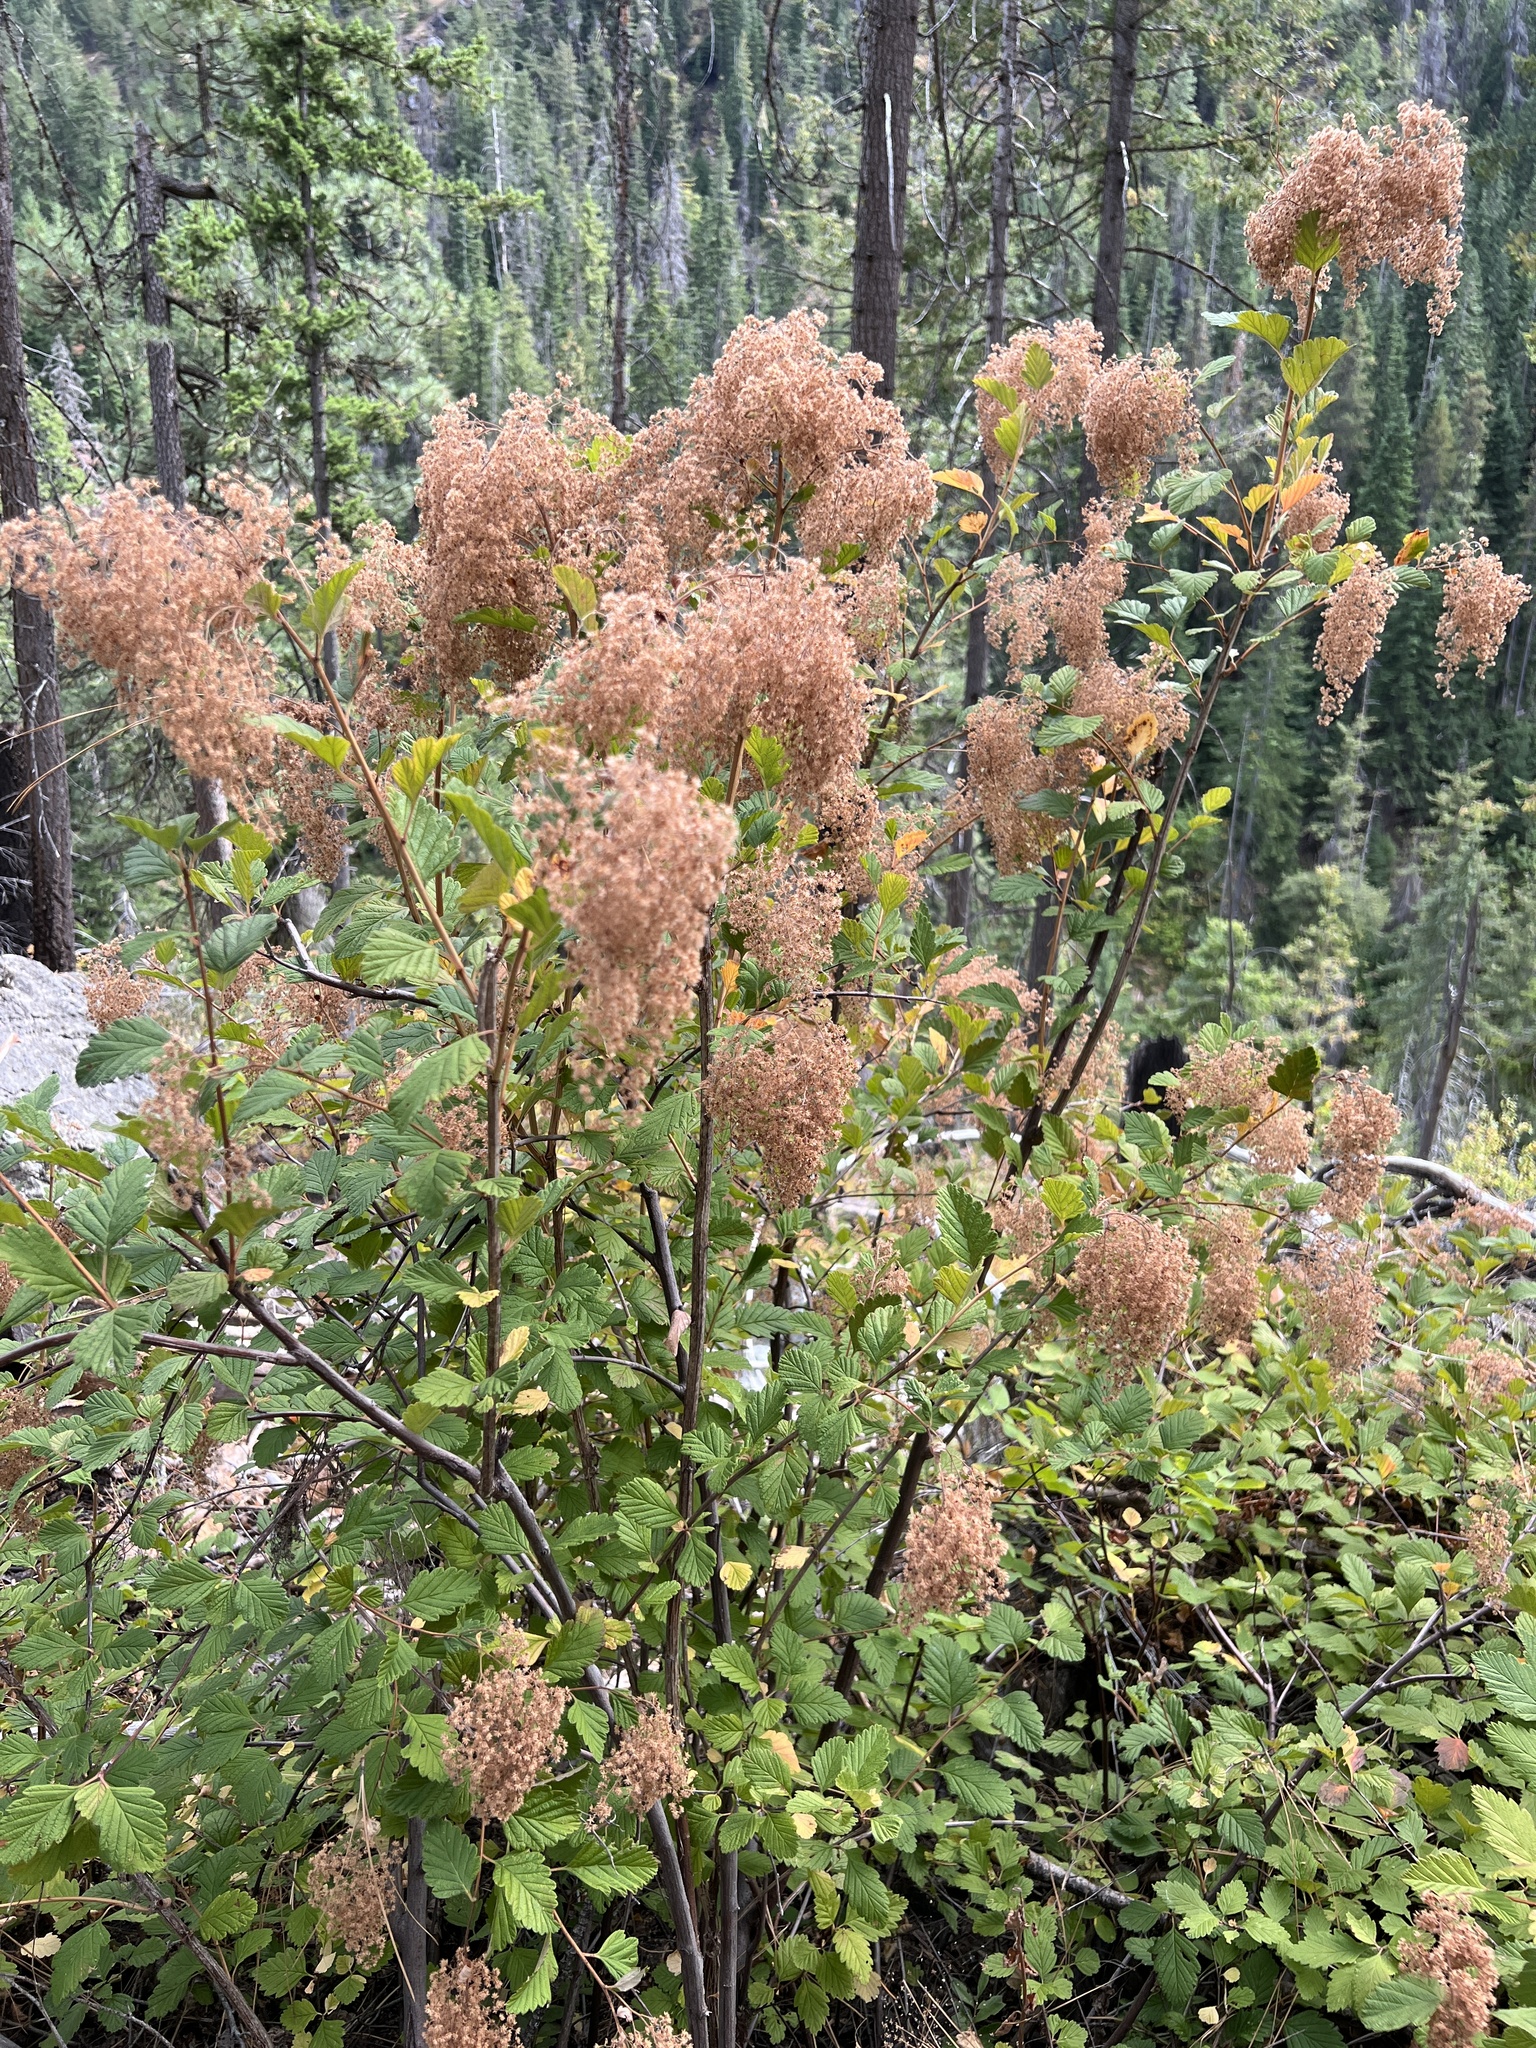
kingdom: Plantae
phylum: Tracheophyta
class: Magnoliopsida
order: Rosales
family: Rosaceae
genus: Holodiscus
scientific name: Holodiscus discolor
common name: Oceanspray
